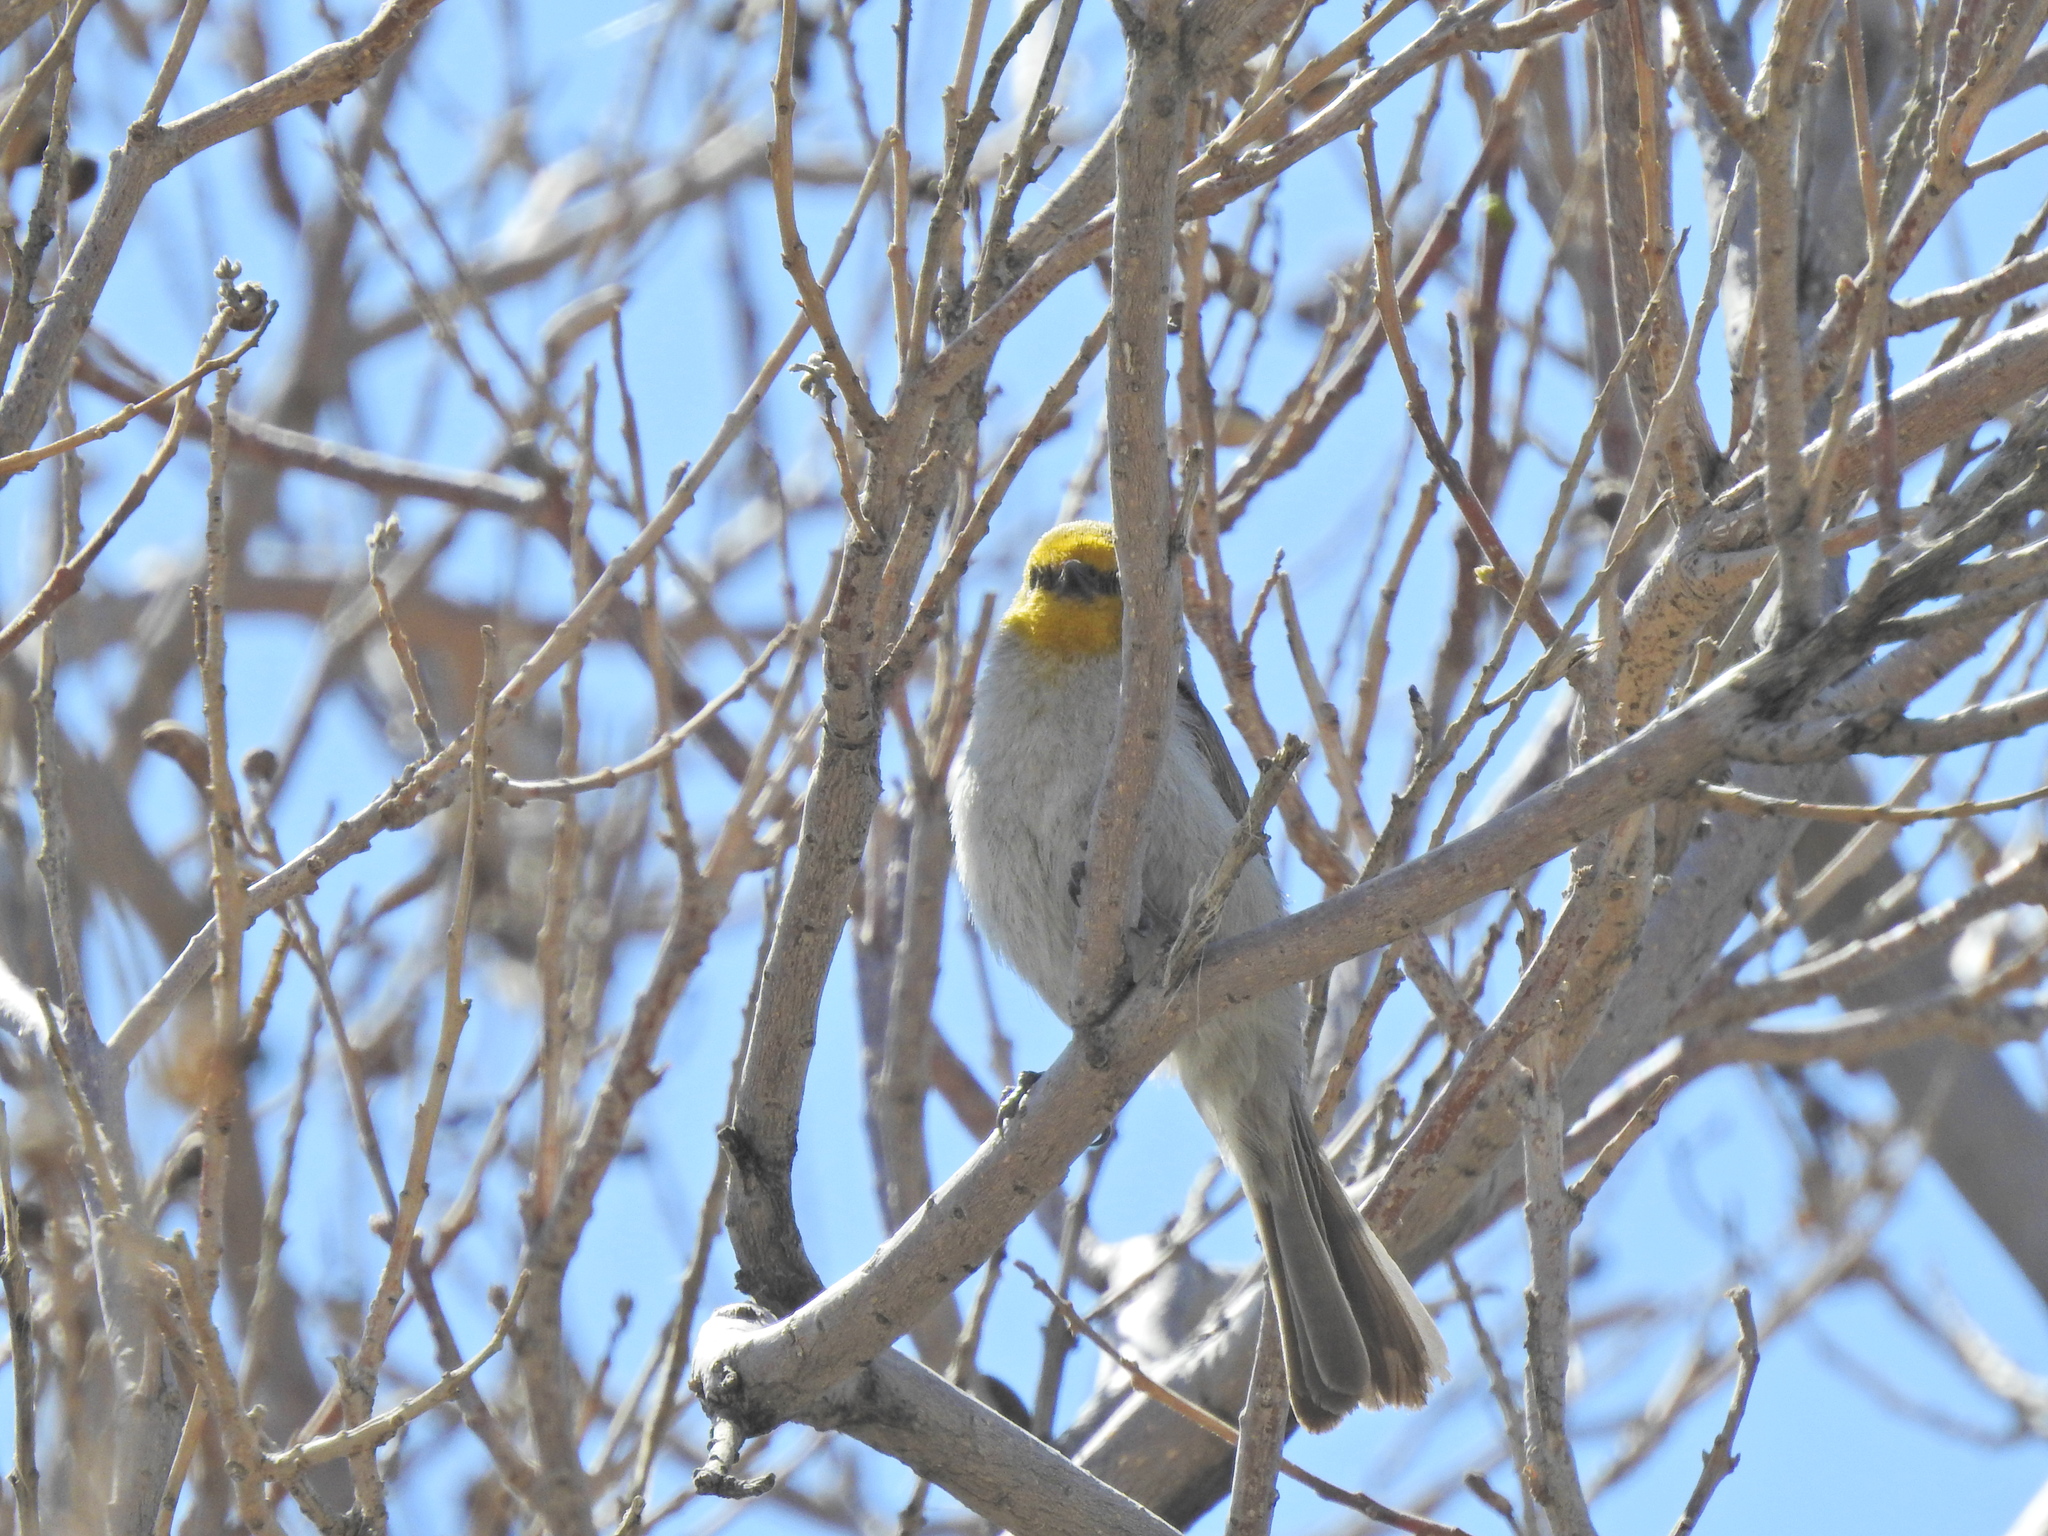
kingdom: Animalia
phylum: Chordata
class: Aves
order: Passeriformes
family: Remizidae
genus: Auriparus
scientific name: Auriparus flaviceps
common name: Verdin
